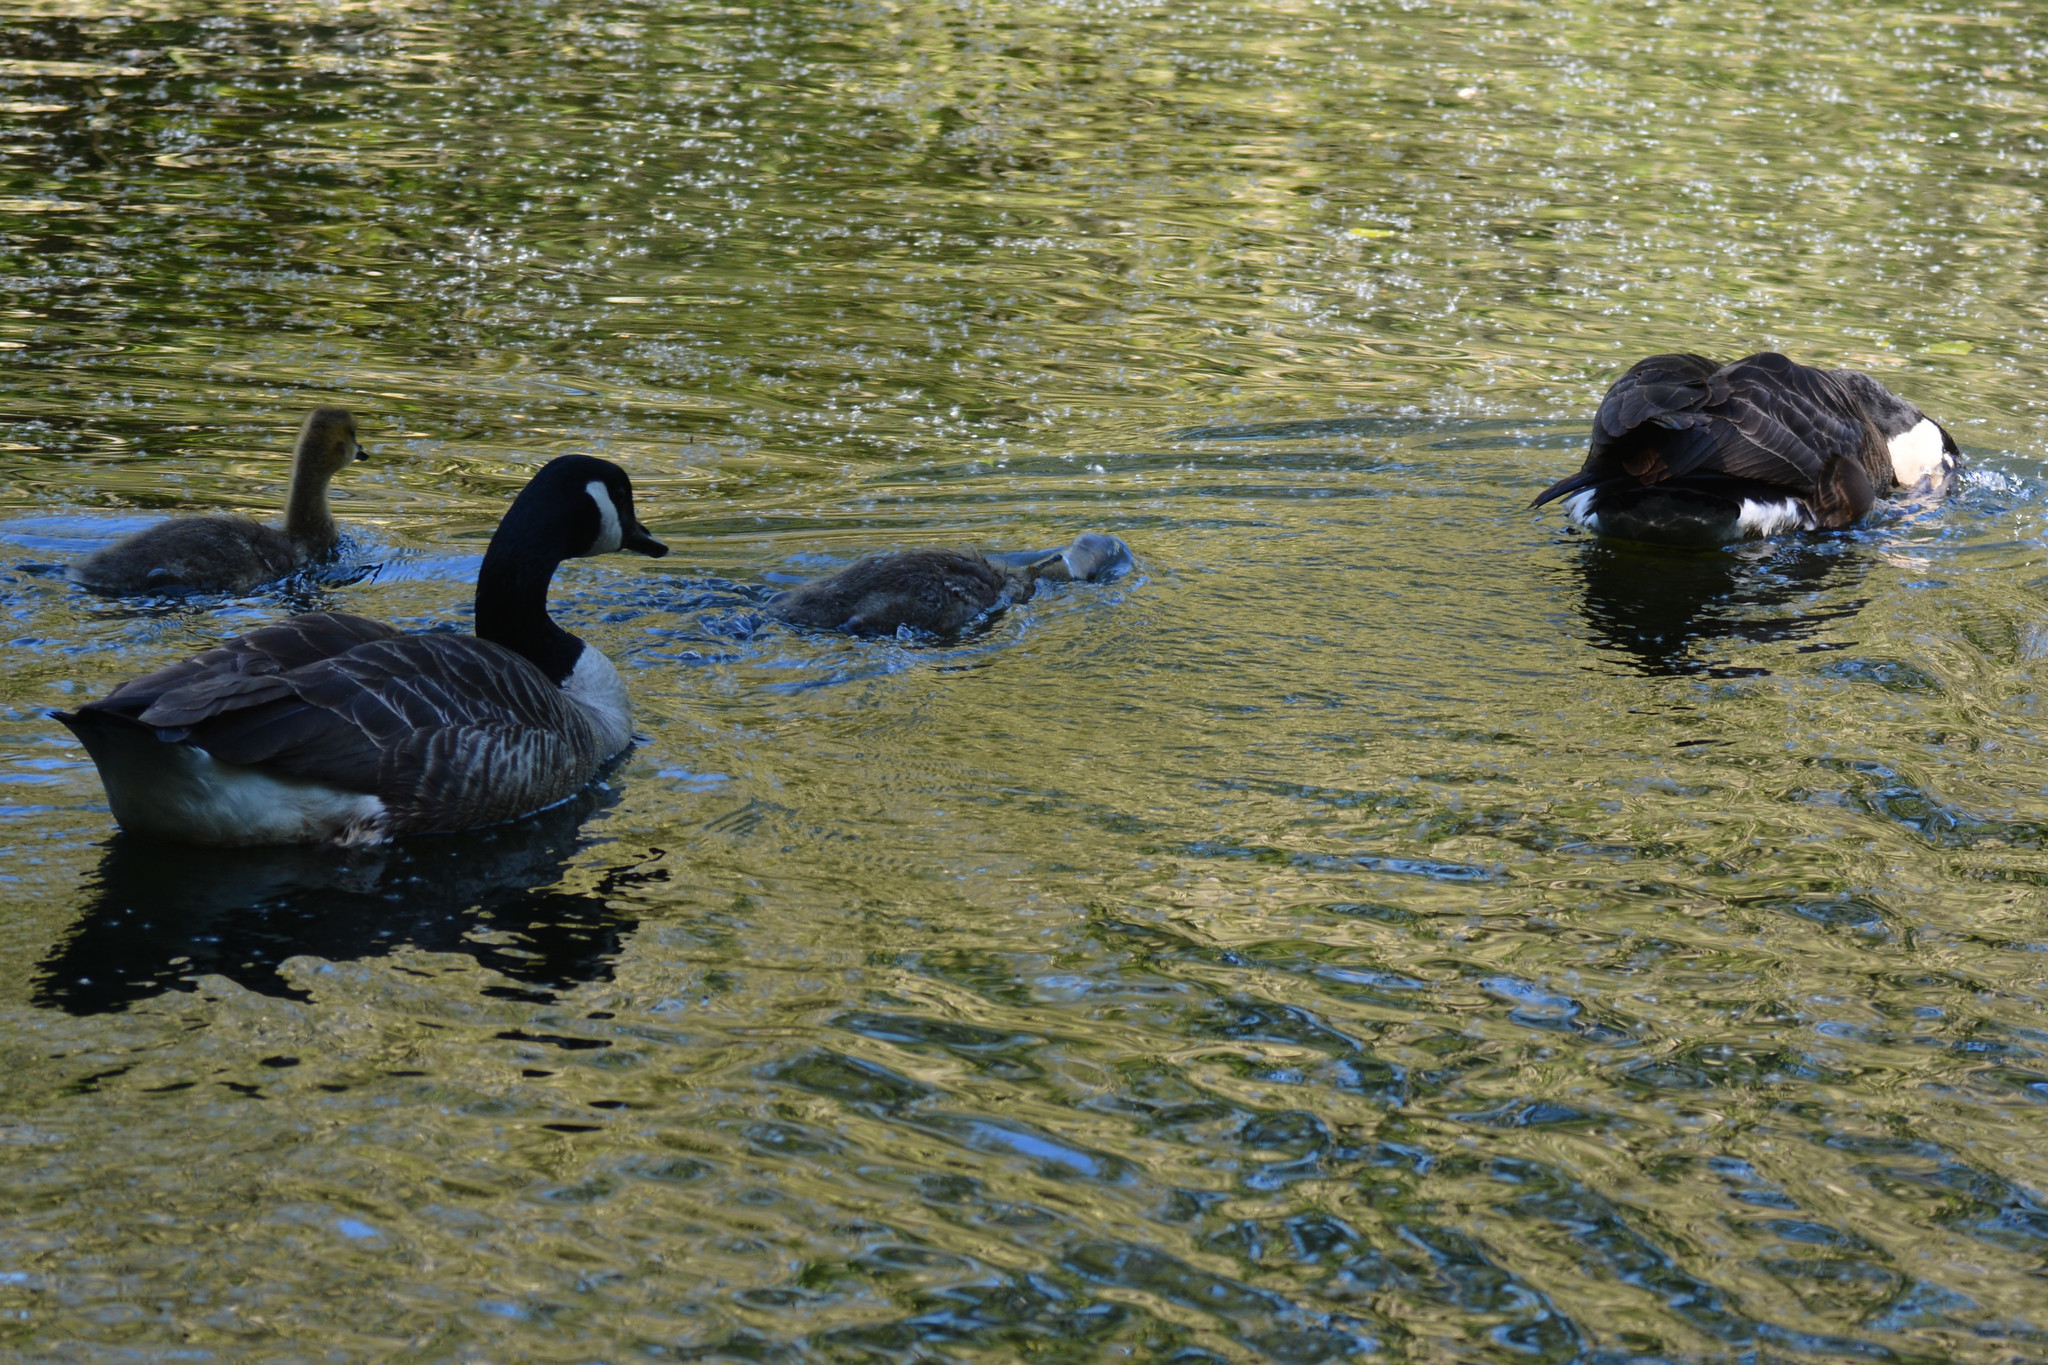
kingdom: Animalia
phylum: Chordata
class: Aves
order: Anseriformes
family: Anatidae
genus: Branta
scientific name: Branta canadensis
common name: Canada goose
